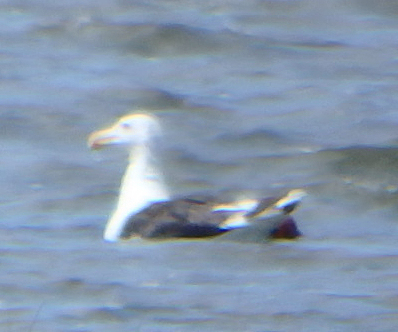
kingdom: Animalia
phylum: Chordata
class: Aves
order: Charadriiformes
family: Laridae
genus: Larus
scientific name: Larus marinus
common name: Great black-backed gull
